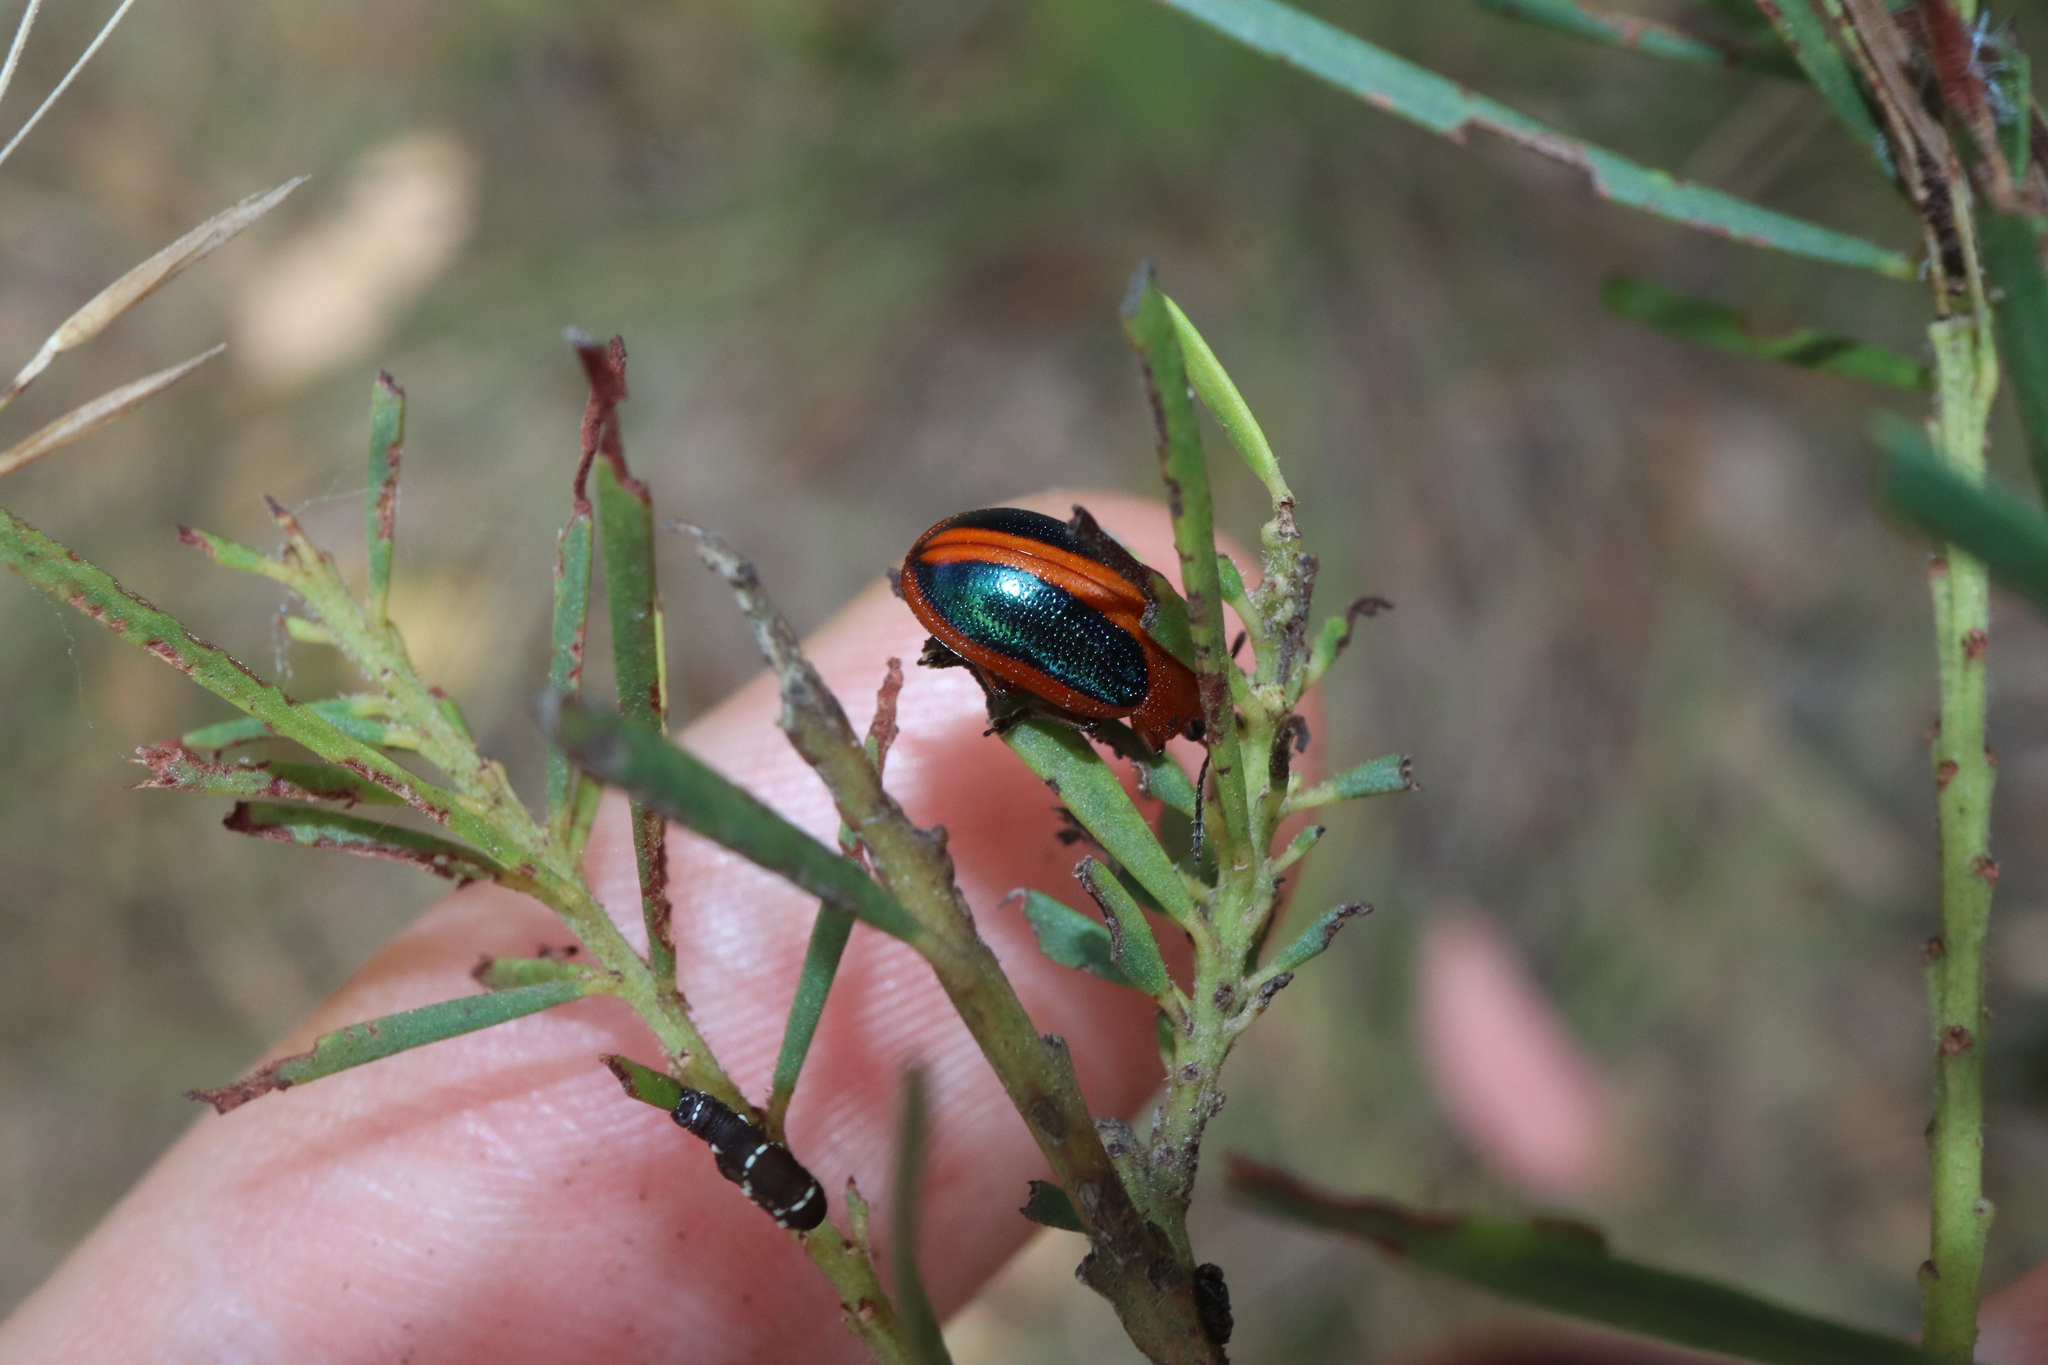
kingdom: Animalia
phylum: Arthropoda
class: Insecta
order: Coleoptera
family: Chrysomelidae
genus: Calomela
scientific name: Calomela
